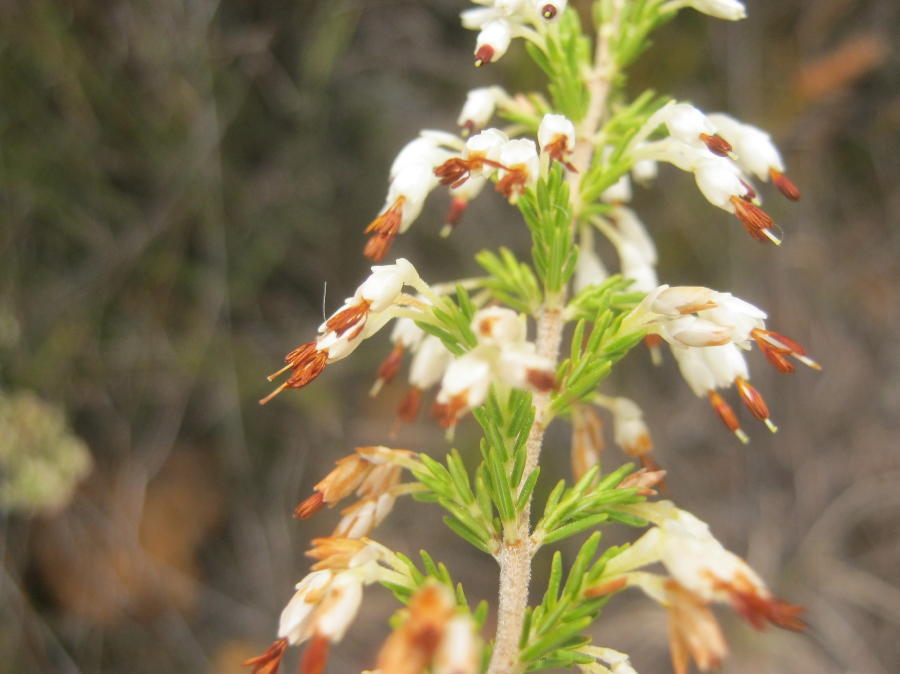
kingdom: Plantae
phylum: Tracheophyta
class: Magnoliopsida
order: Ericales
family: Ericaceae
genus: Erica
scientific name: Erica imbricata
